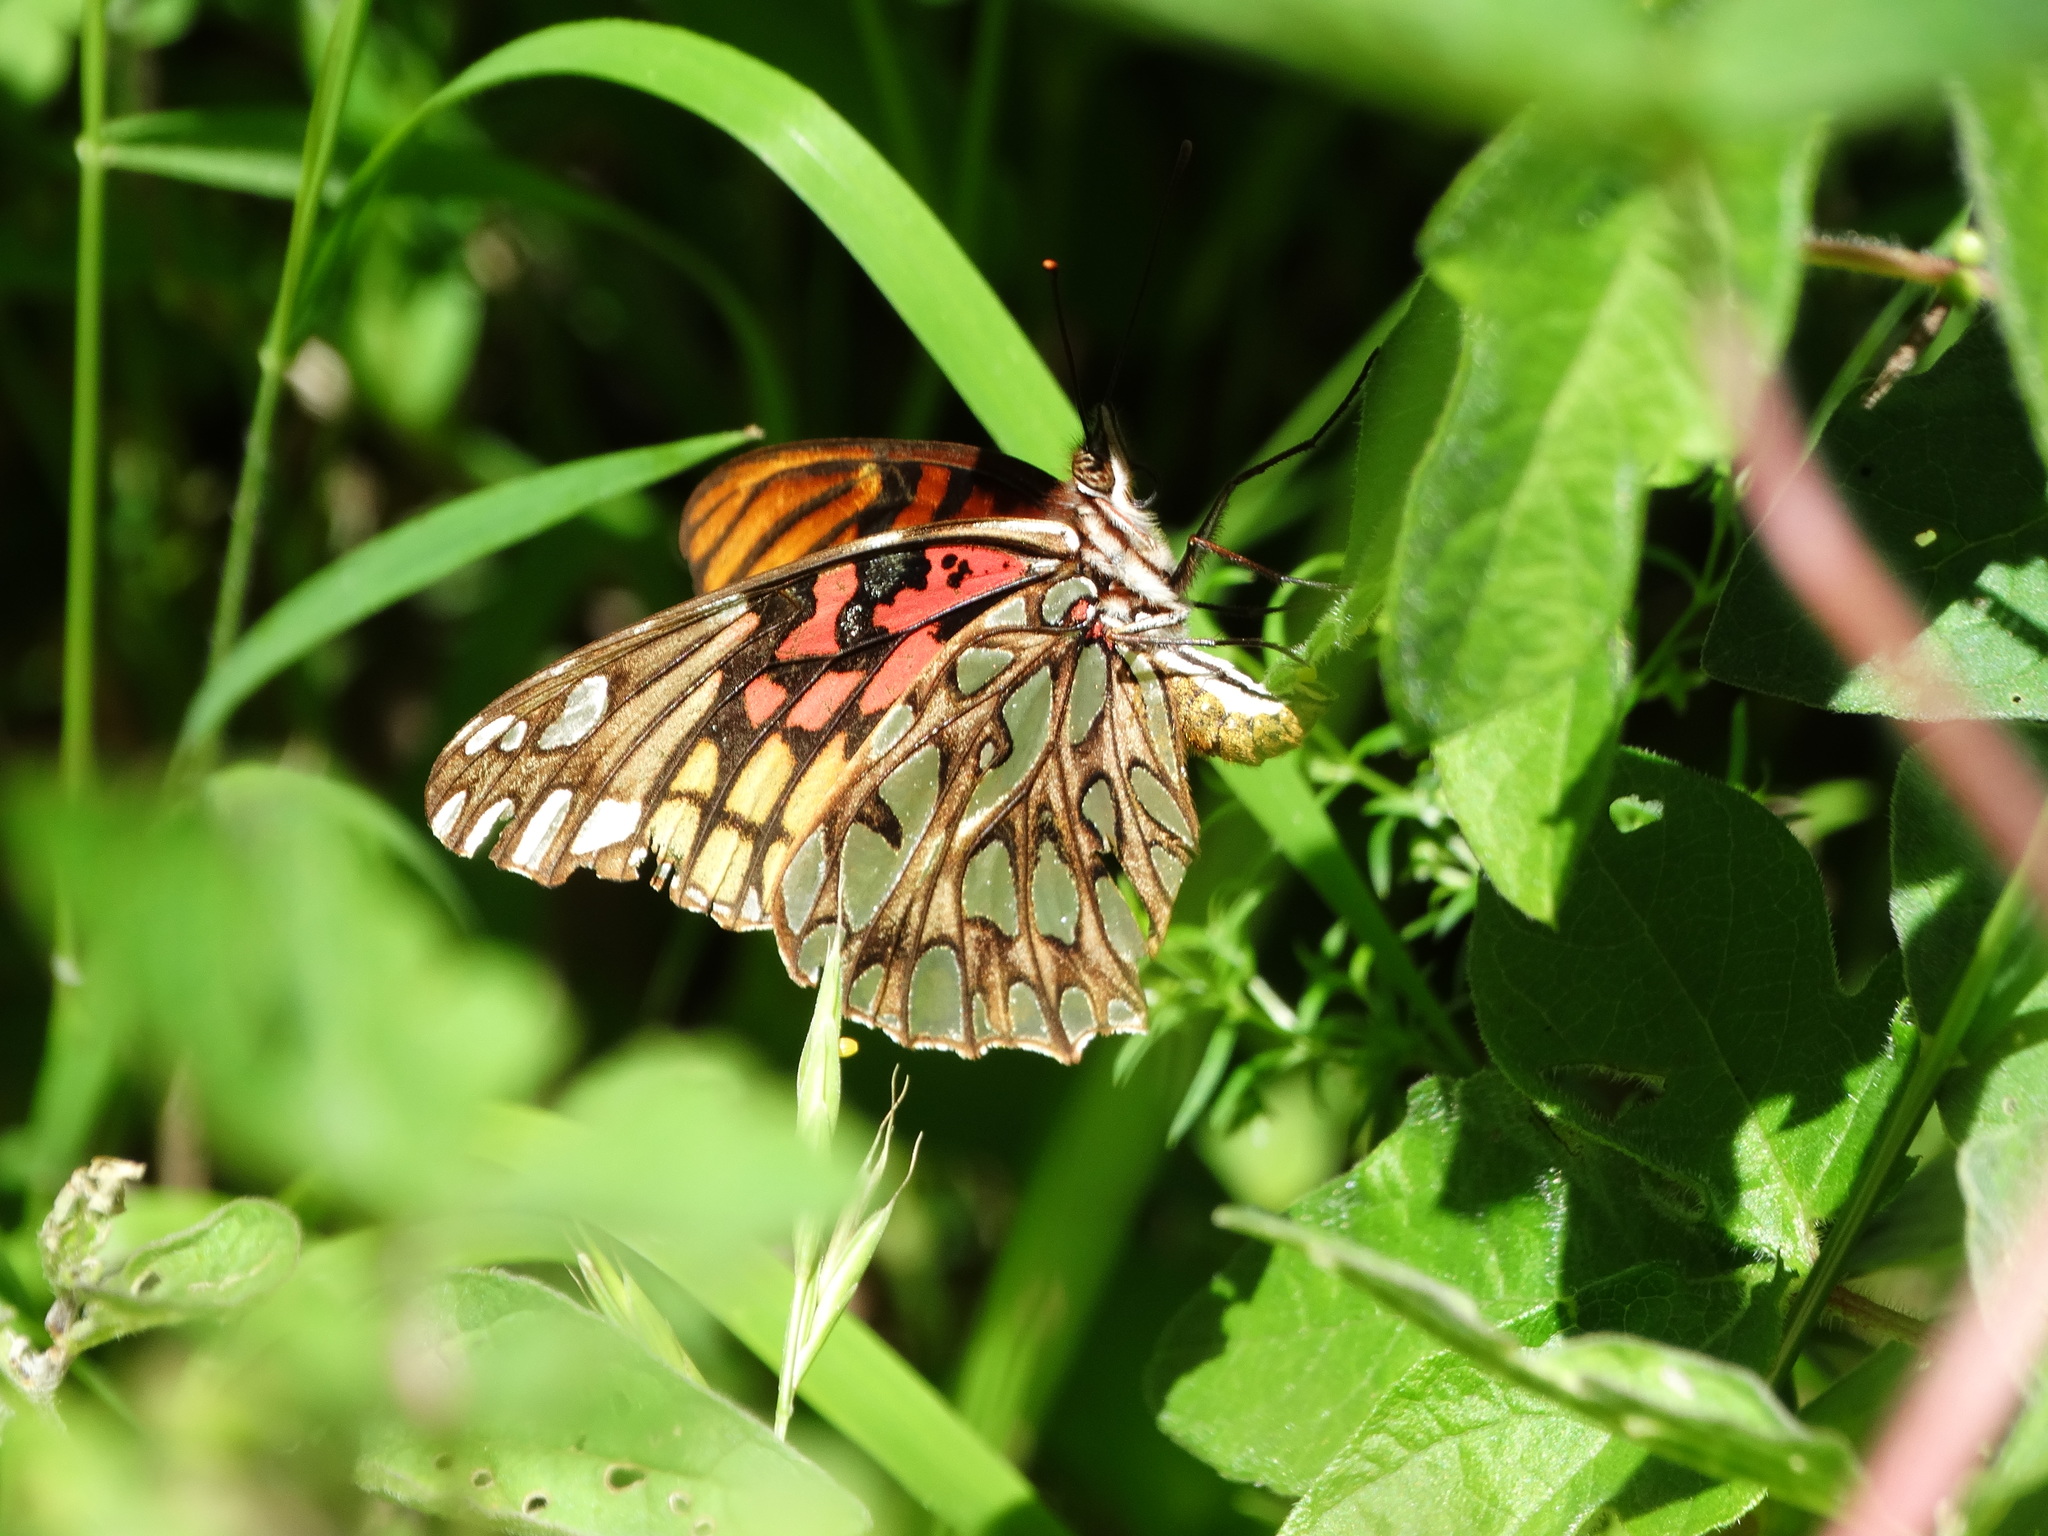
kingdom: Animalia
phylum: Arthropoda
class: Insecta
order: Lepidoptera
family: Nymphalidae
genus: Dione
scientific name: Dione moneta
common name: Mexican silverspot
